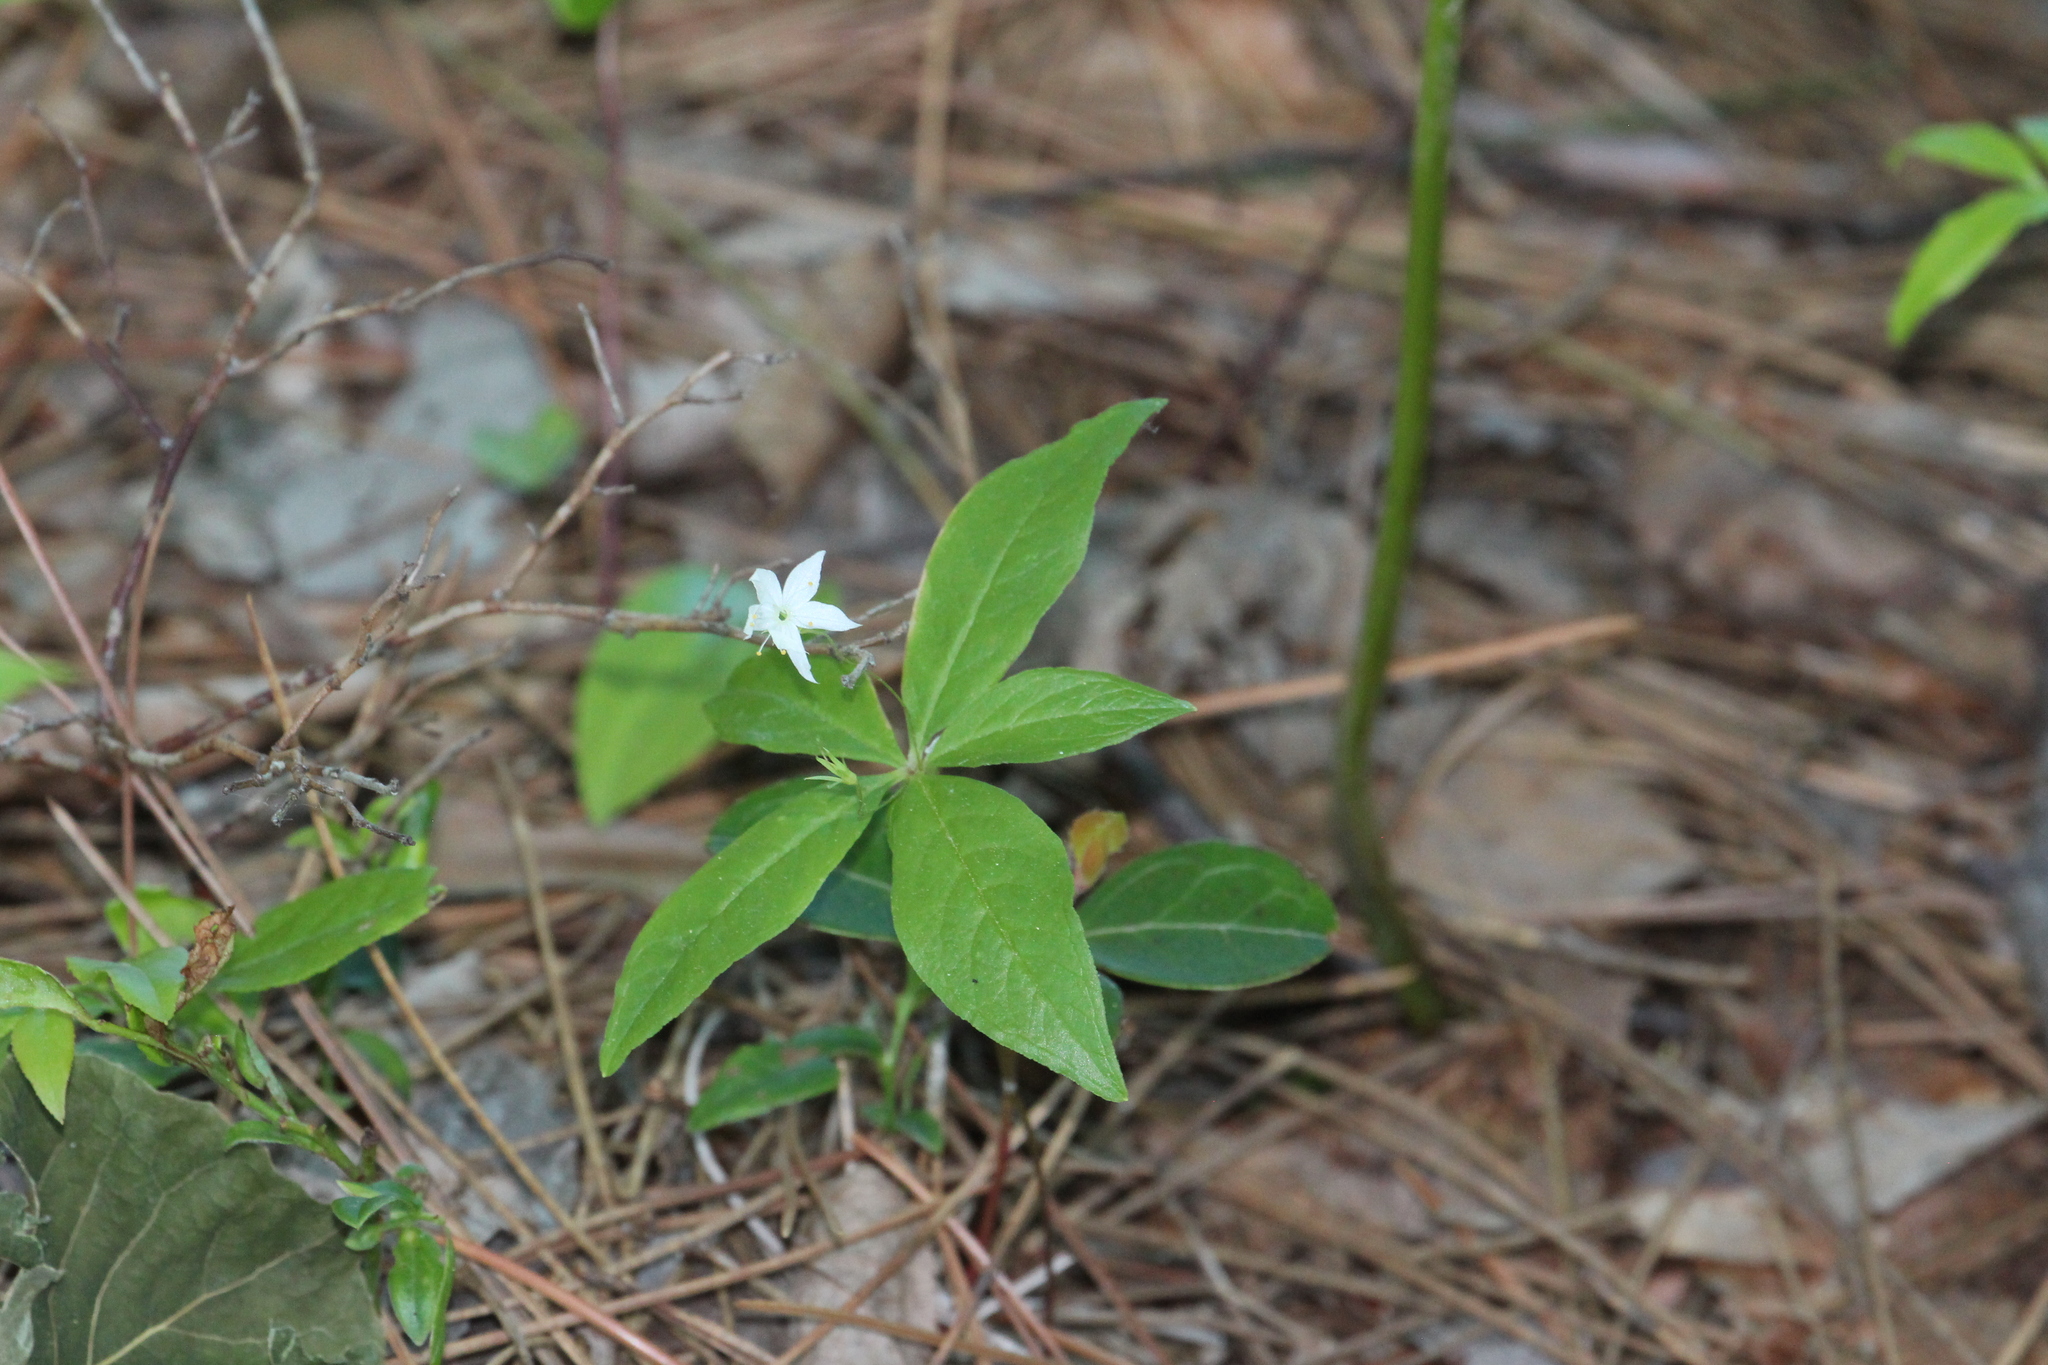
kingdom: Plantae
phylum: Tracheophyta
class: Magnoliopsida
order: Ericales
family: Primulaceae
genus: Lysimachia
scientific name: Lysimachia borealis
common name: American starflower
